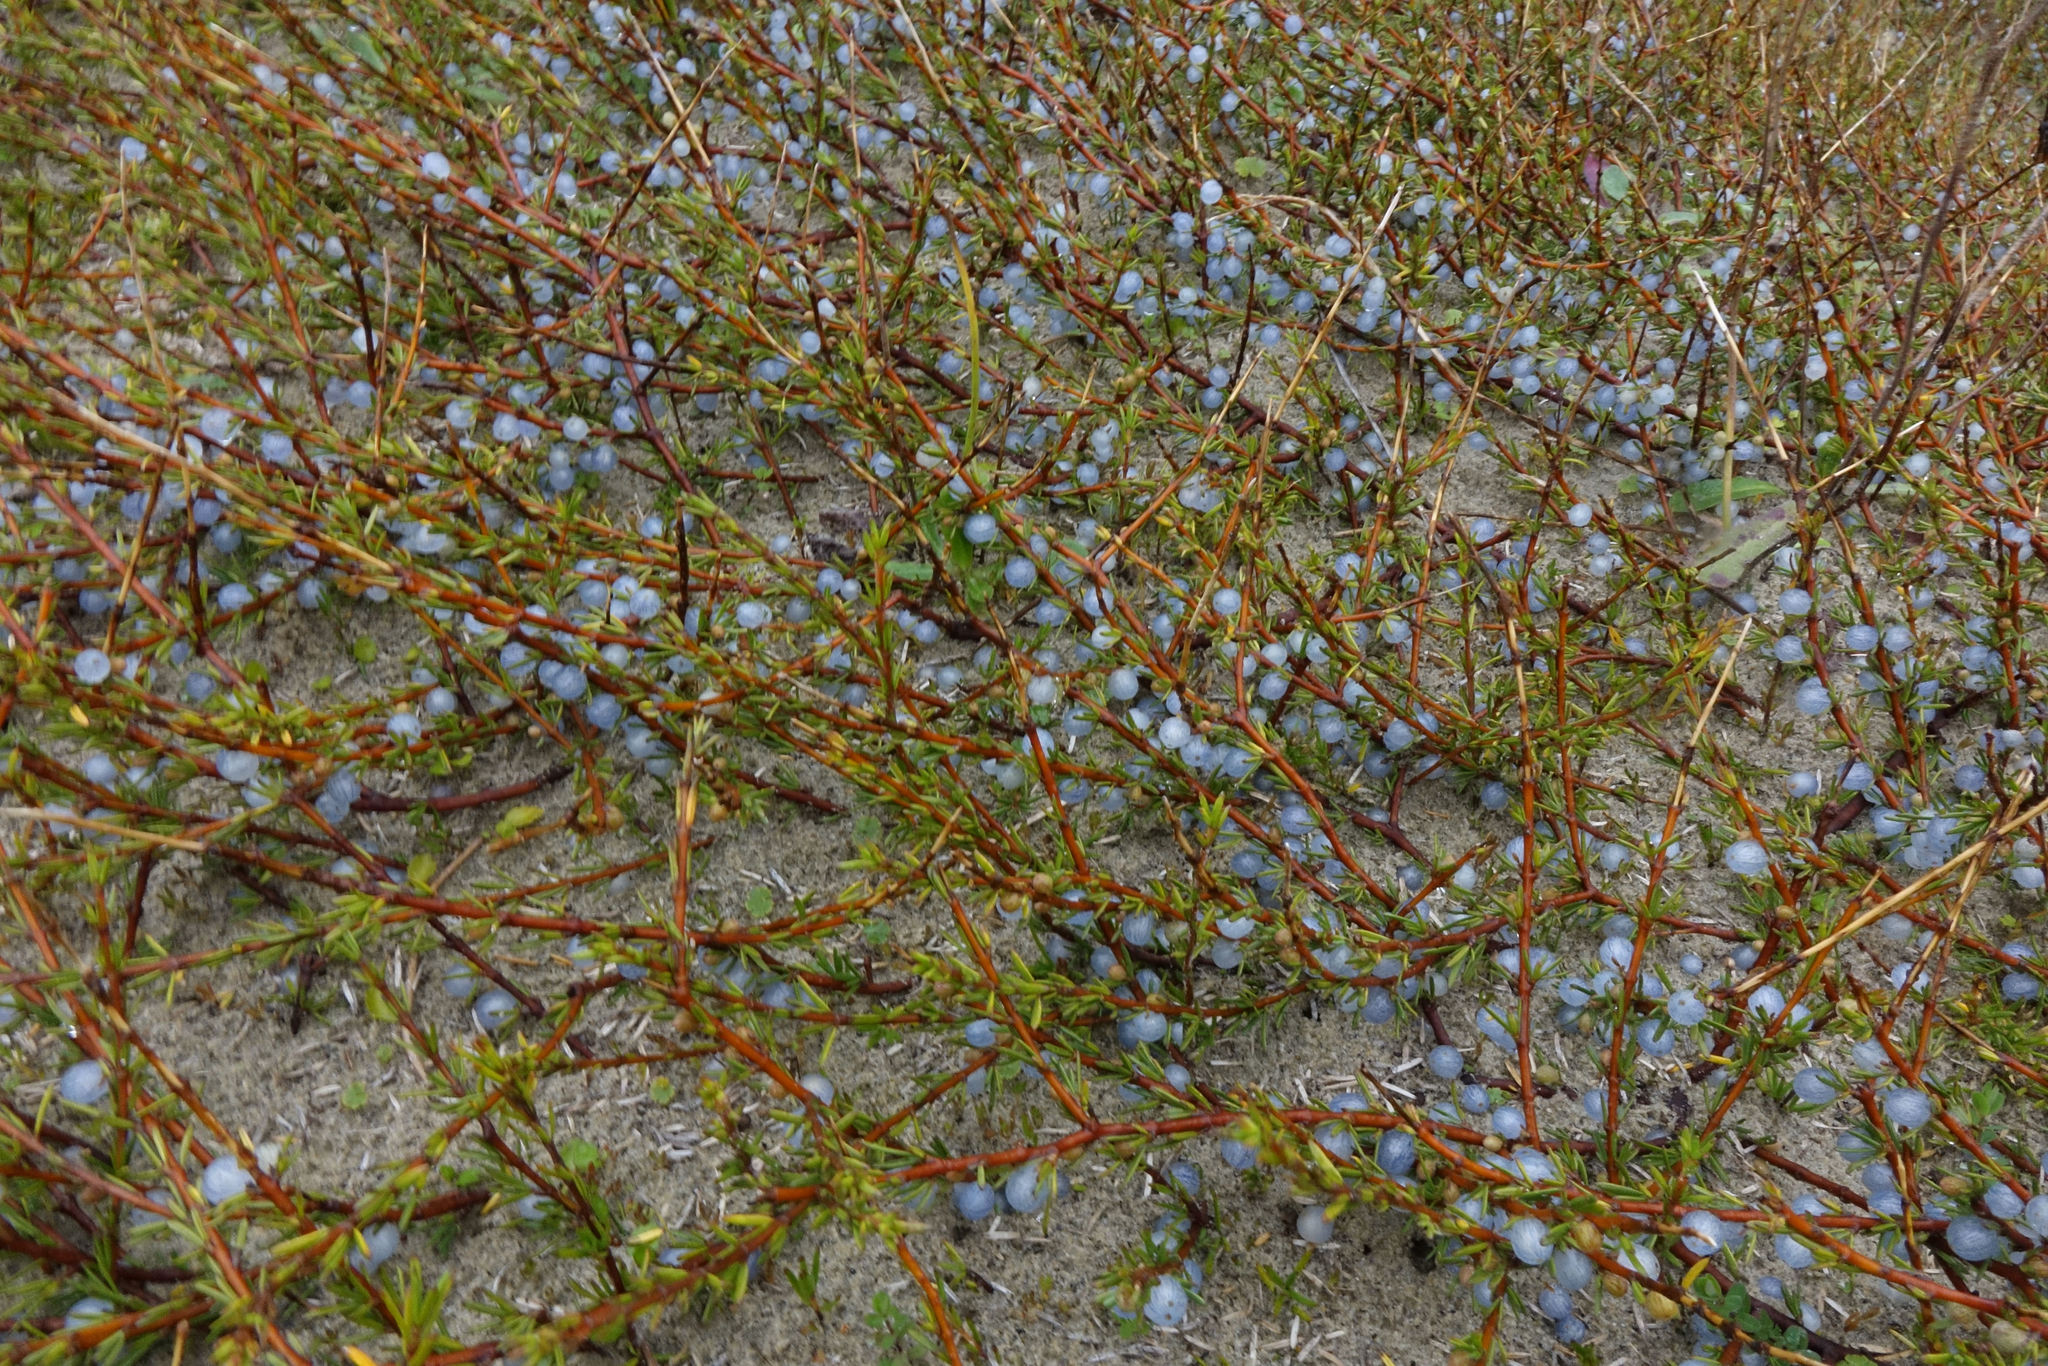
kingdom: Plantae
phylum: Tracheophyta
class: Magnoliopsida
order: Gentianales
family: Rubiaceae
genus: Coprosma
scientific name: Coprosma acerosa
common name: Sand coprosma
